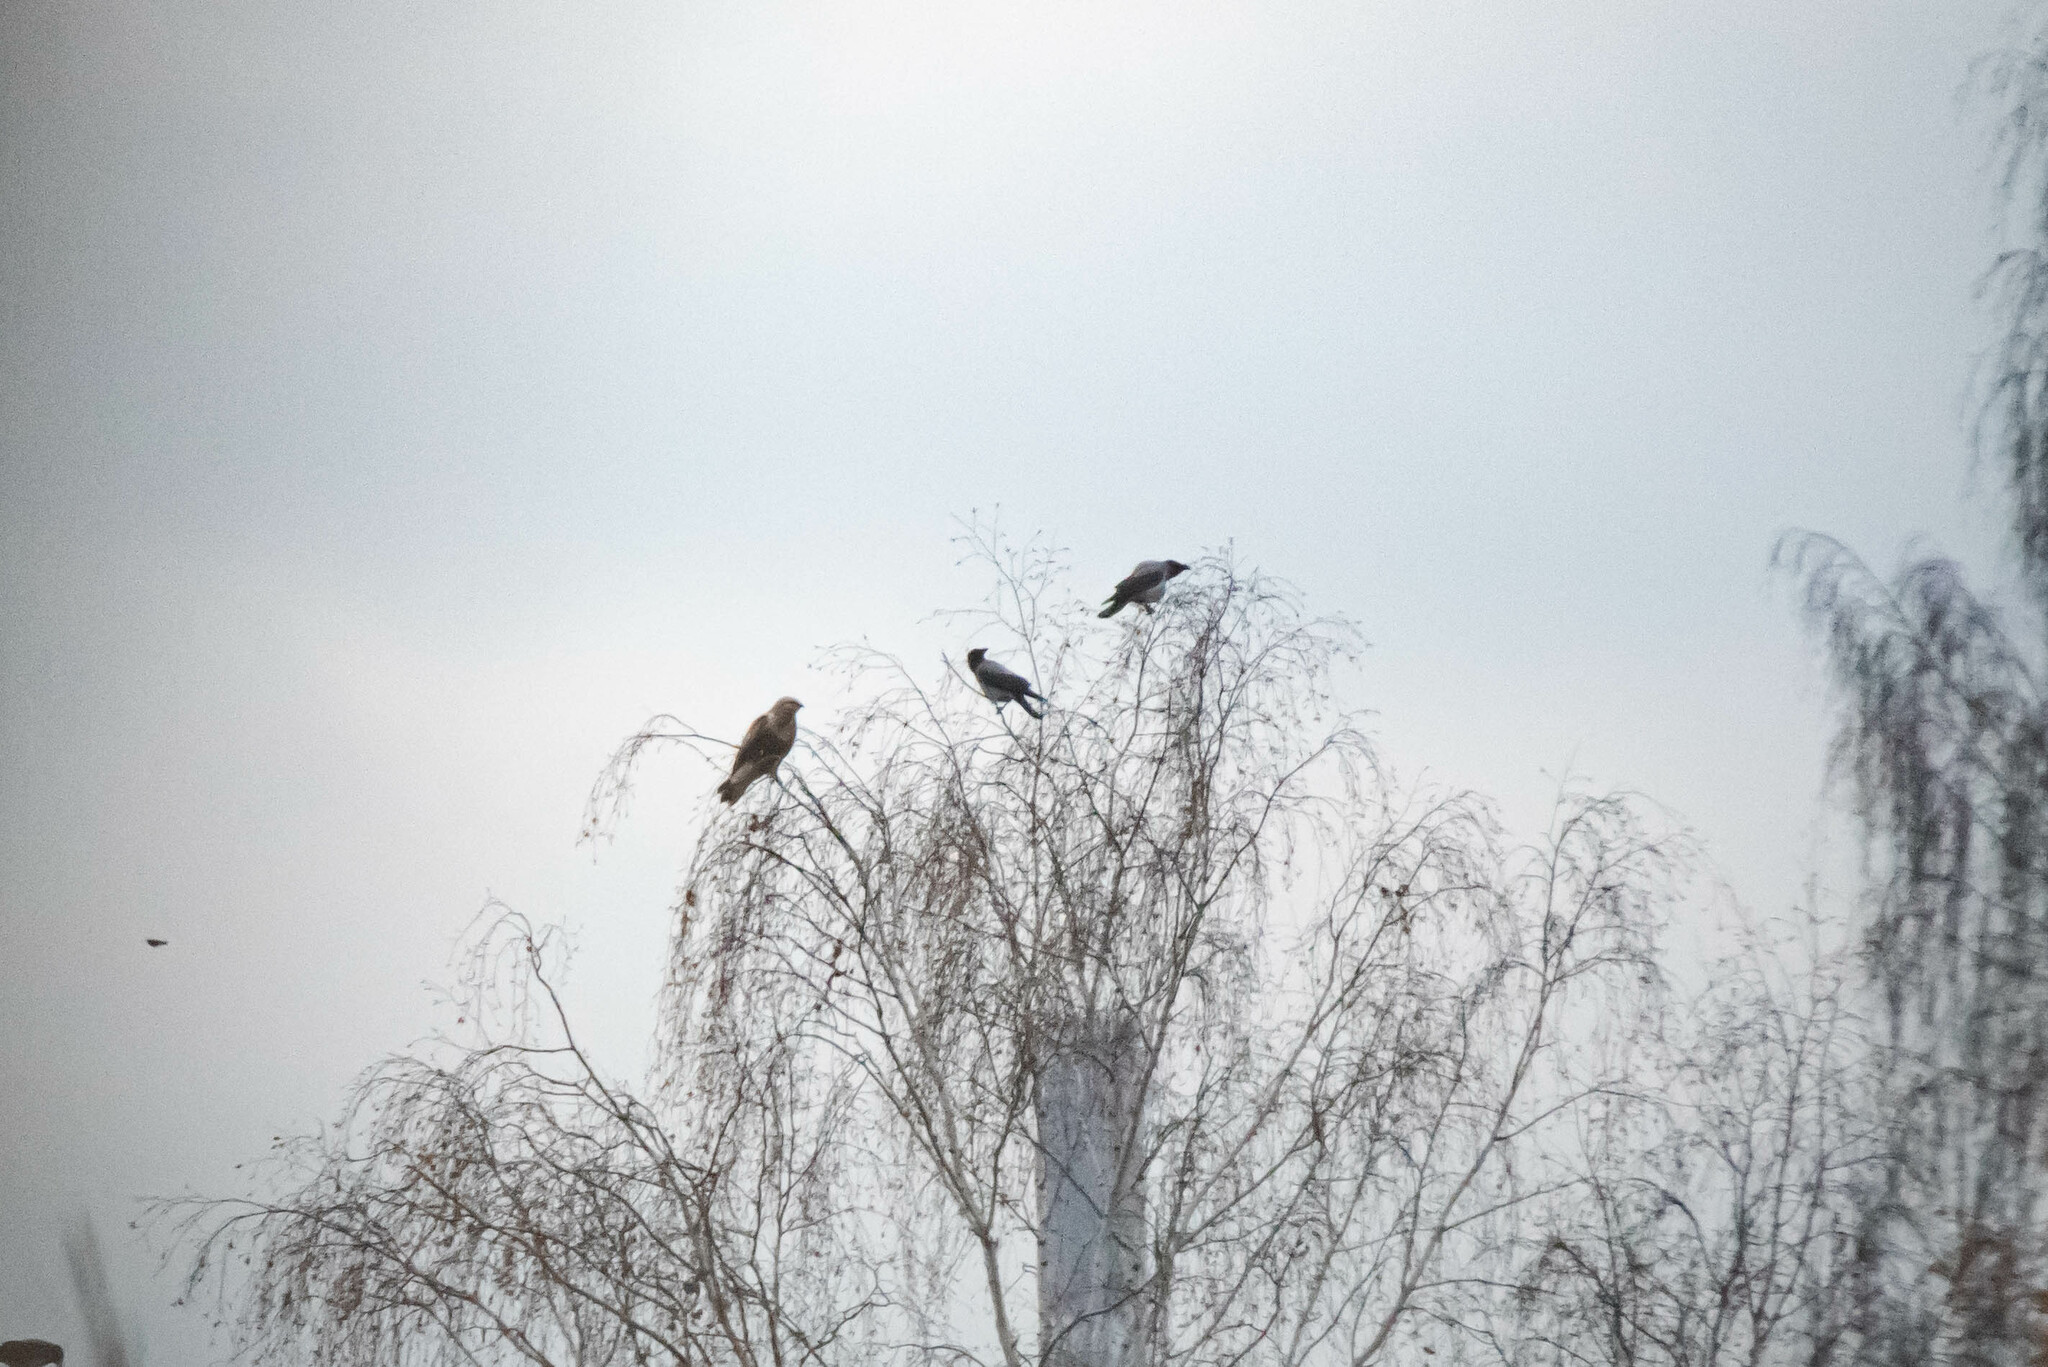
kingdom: Animalia
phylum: Chordata
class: Aves
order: Passeriformes
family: Corvidae
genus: Corvus
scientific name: Corvus cornix
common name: Hooded crow
